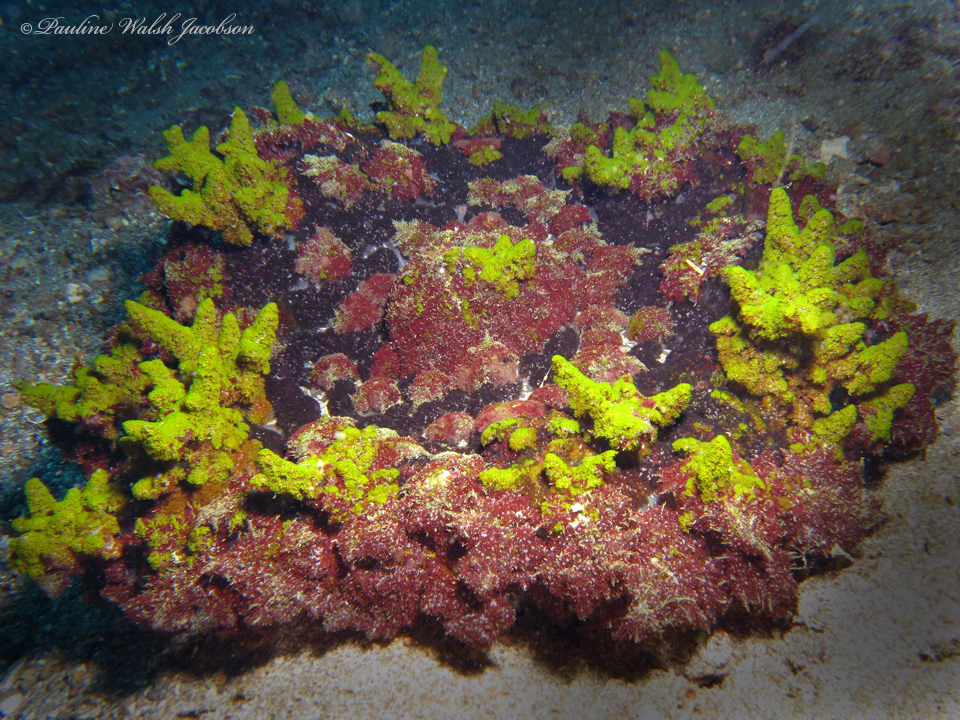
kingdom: Animalia
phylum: Cnidaria
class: Anthozoa
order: Actiniaria
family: Aliciidae
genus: Phyllodiscus
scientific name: Phyllodiscus semoni
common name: Night anemone
